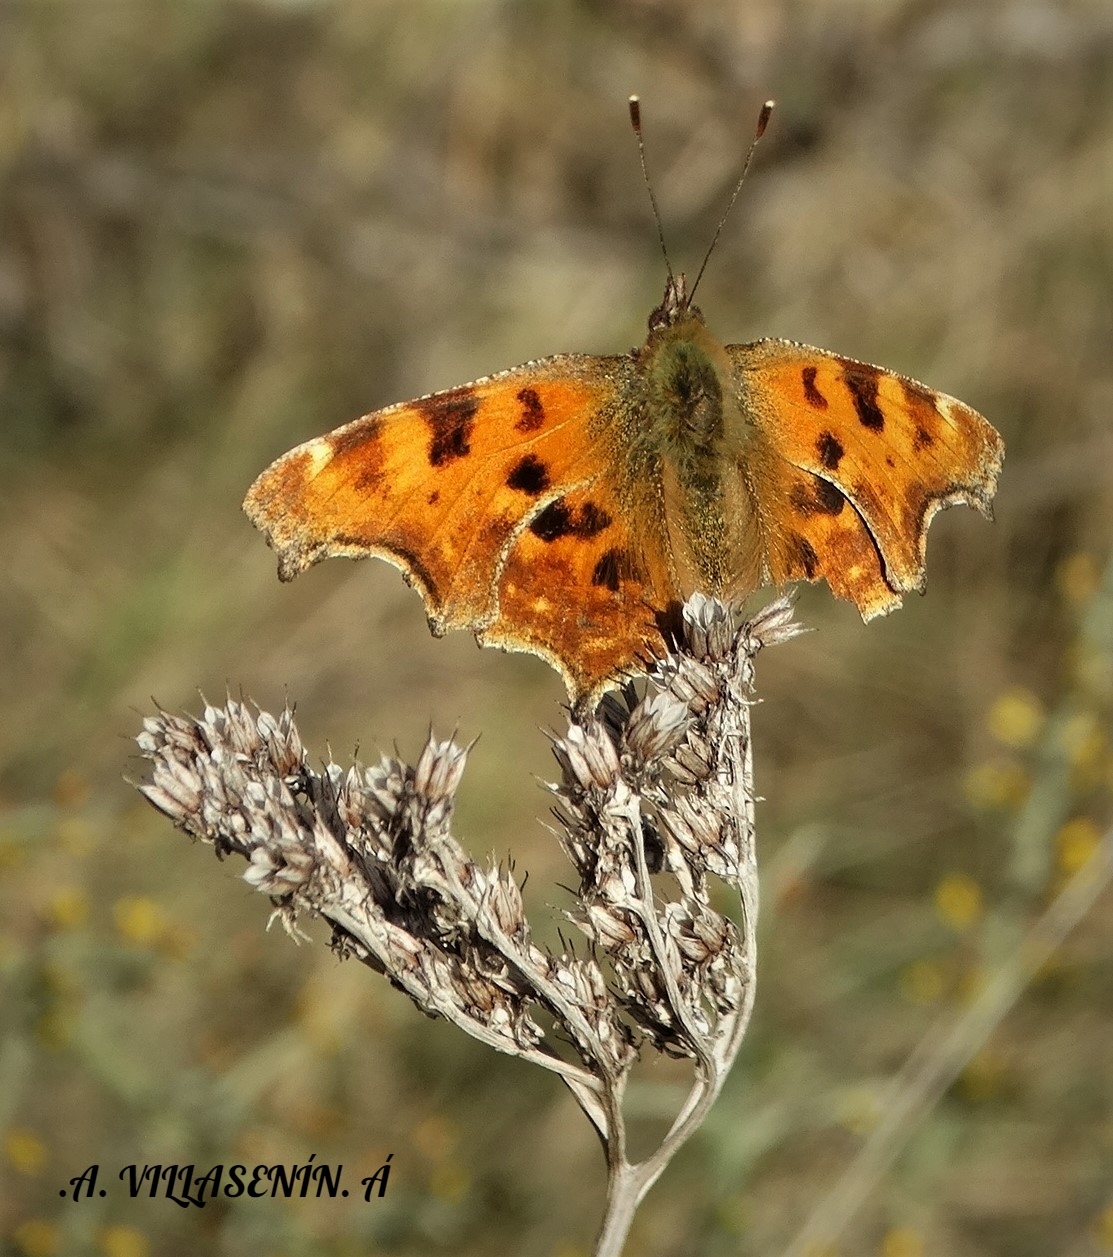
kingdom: Animalia
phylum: Arthropoda
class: Insecta
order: Lepidoptera
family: Nymphalidae
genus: Polygonia
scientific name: Polygonia c-album
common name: Comma
